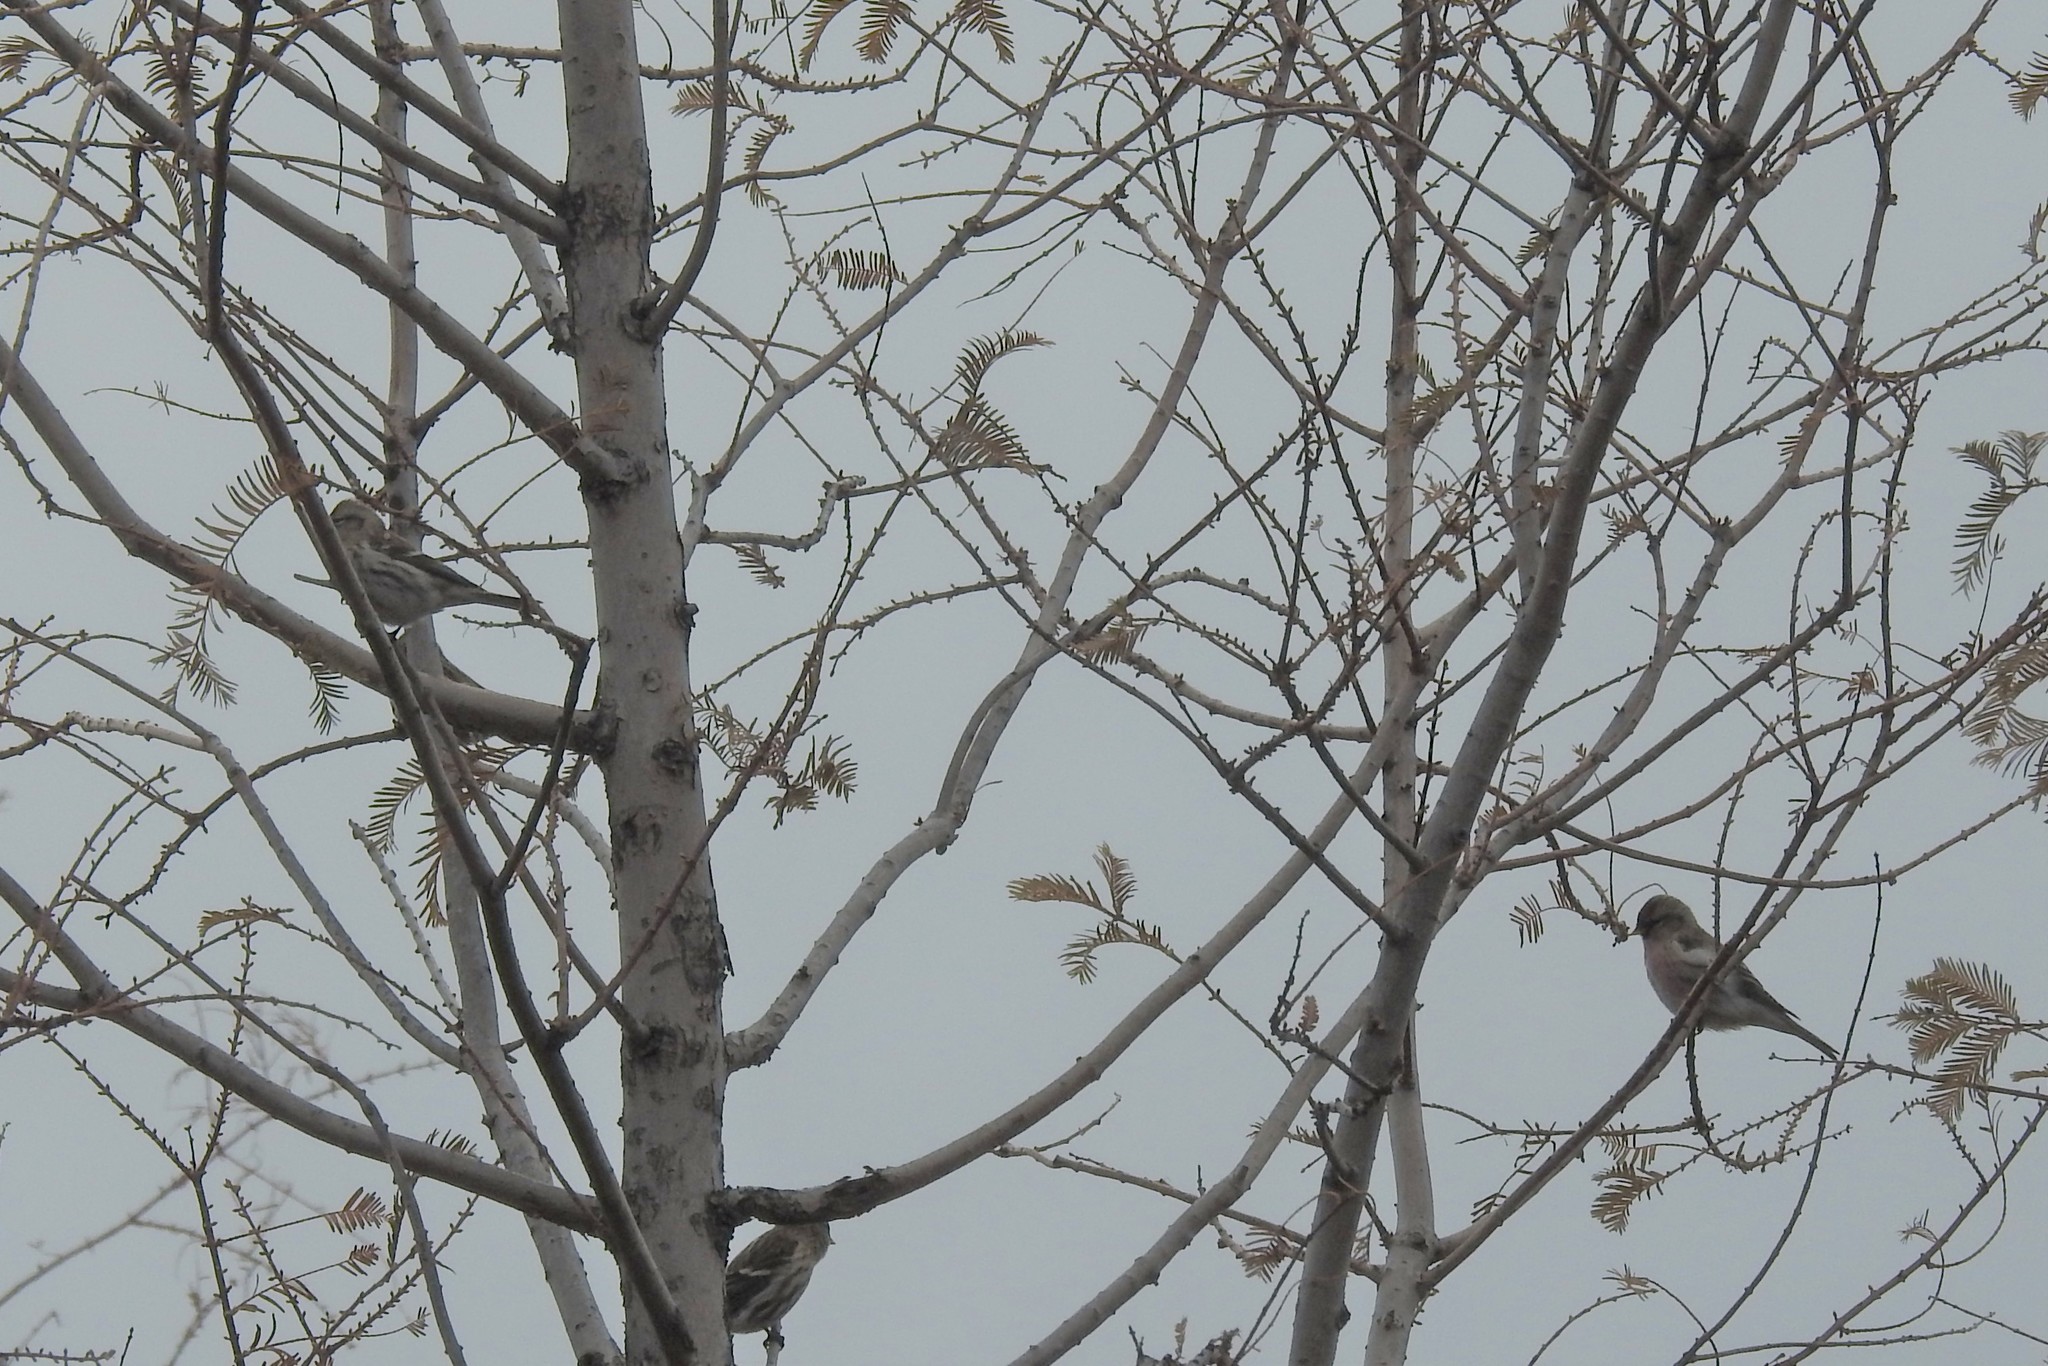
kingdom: Animalia
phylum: Chordata
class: Aves
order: Passeriformes
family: Fringillidae
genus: Acanthis
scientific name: Acanthis flammea
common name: Common redpoll
